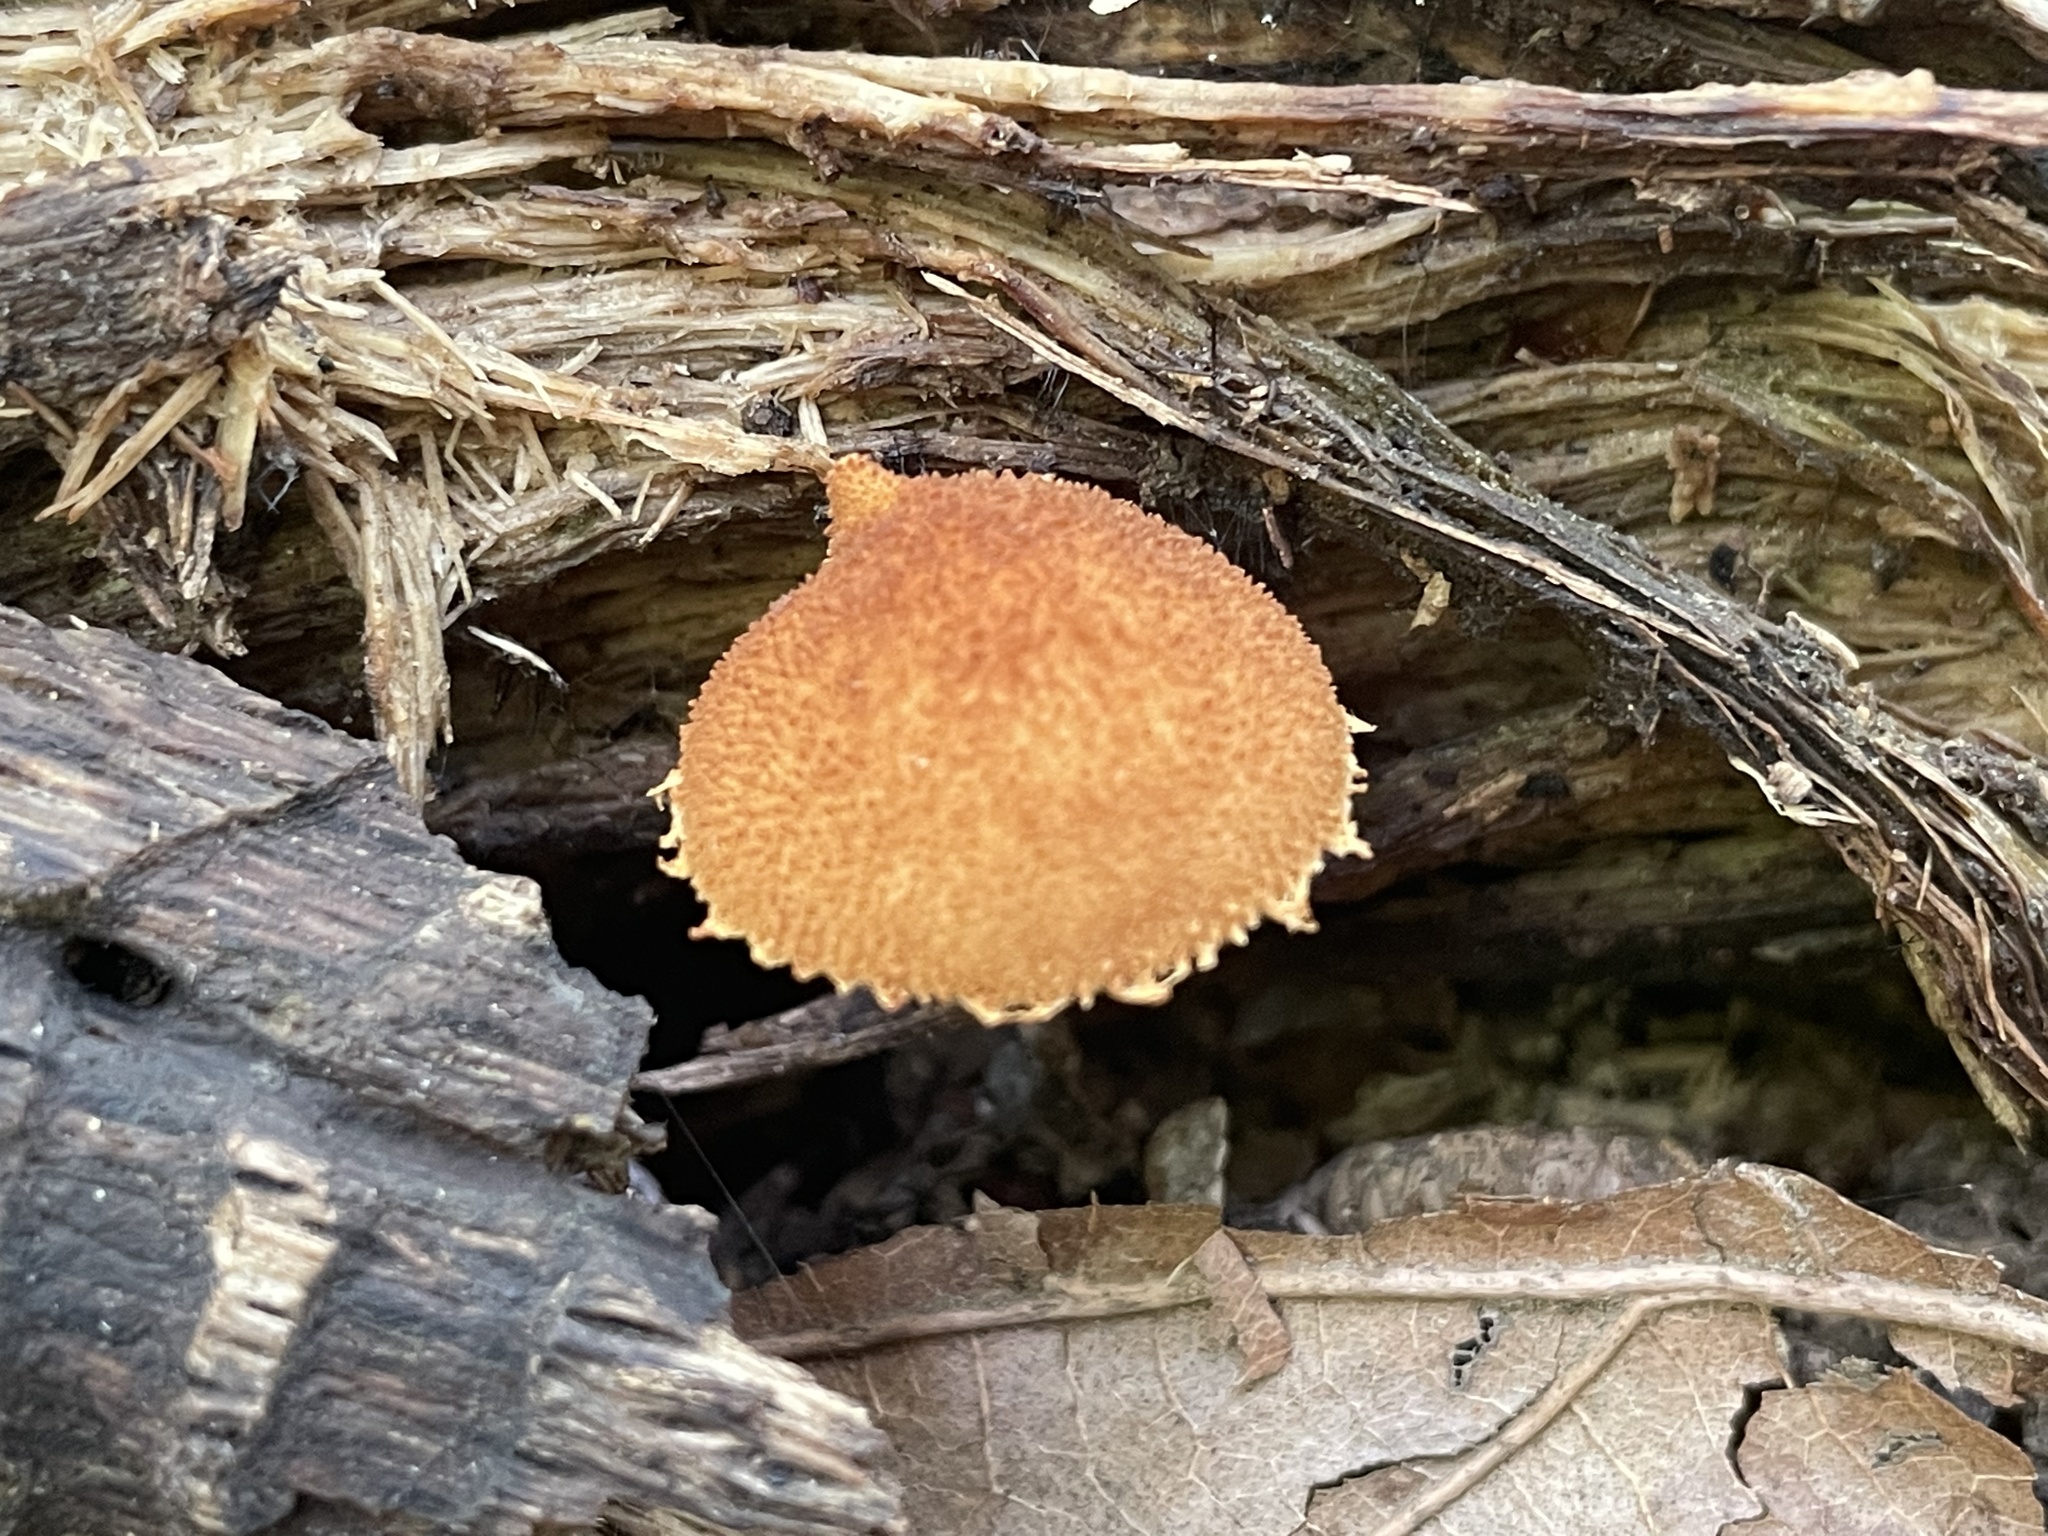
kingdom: Fungi
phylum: Basidiomycota
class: Agaricomycetes
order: Agaricales
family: Tubariaceae
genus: Flammulaster
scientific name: Flammulaster erinaceellus
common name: Powder-scale pholiota
